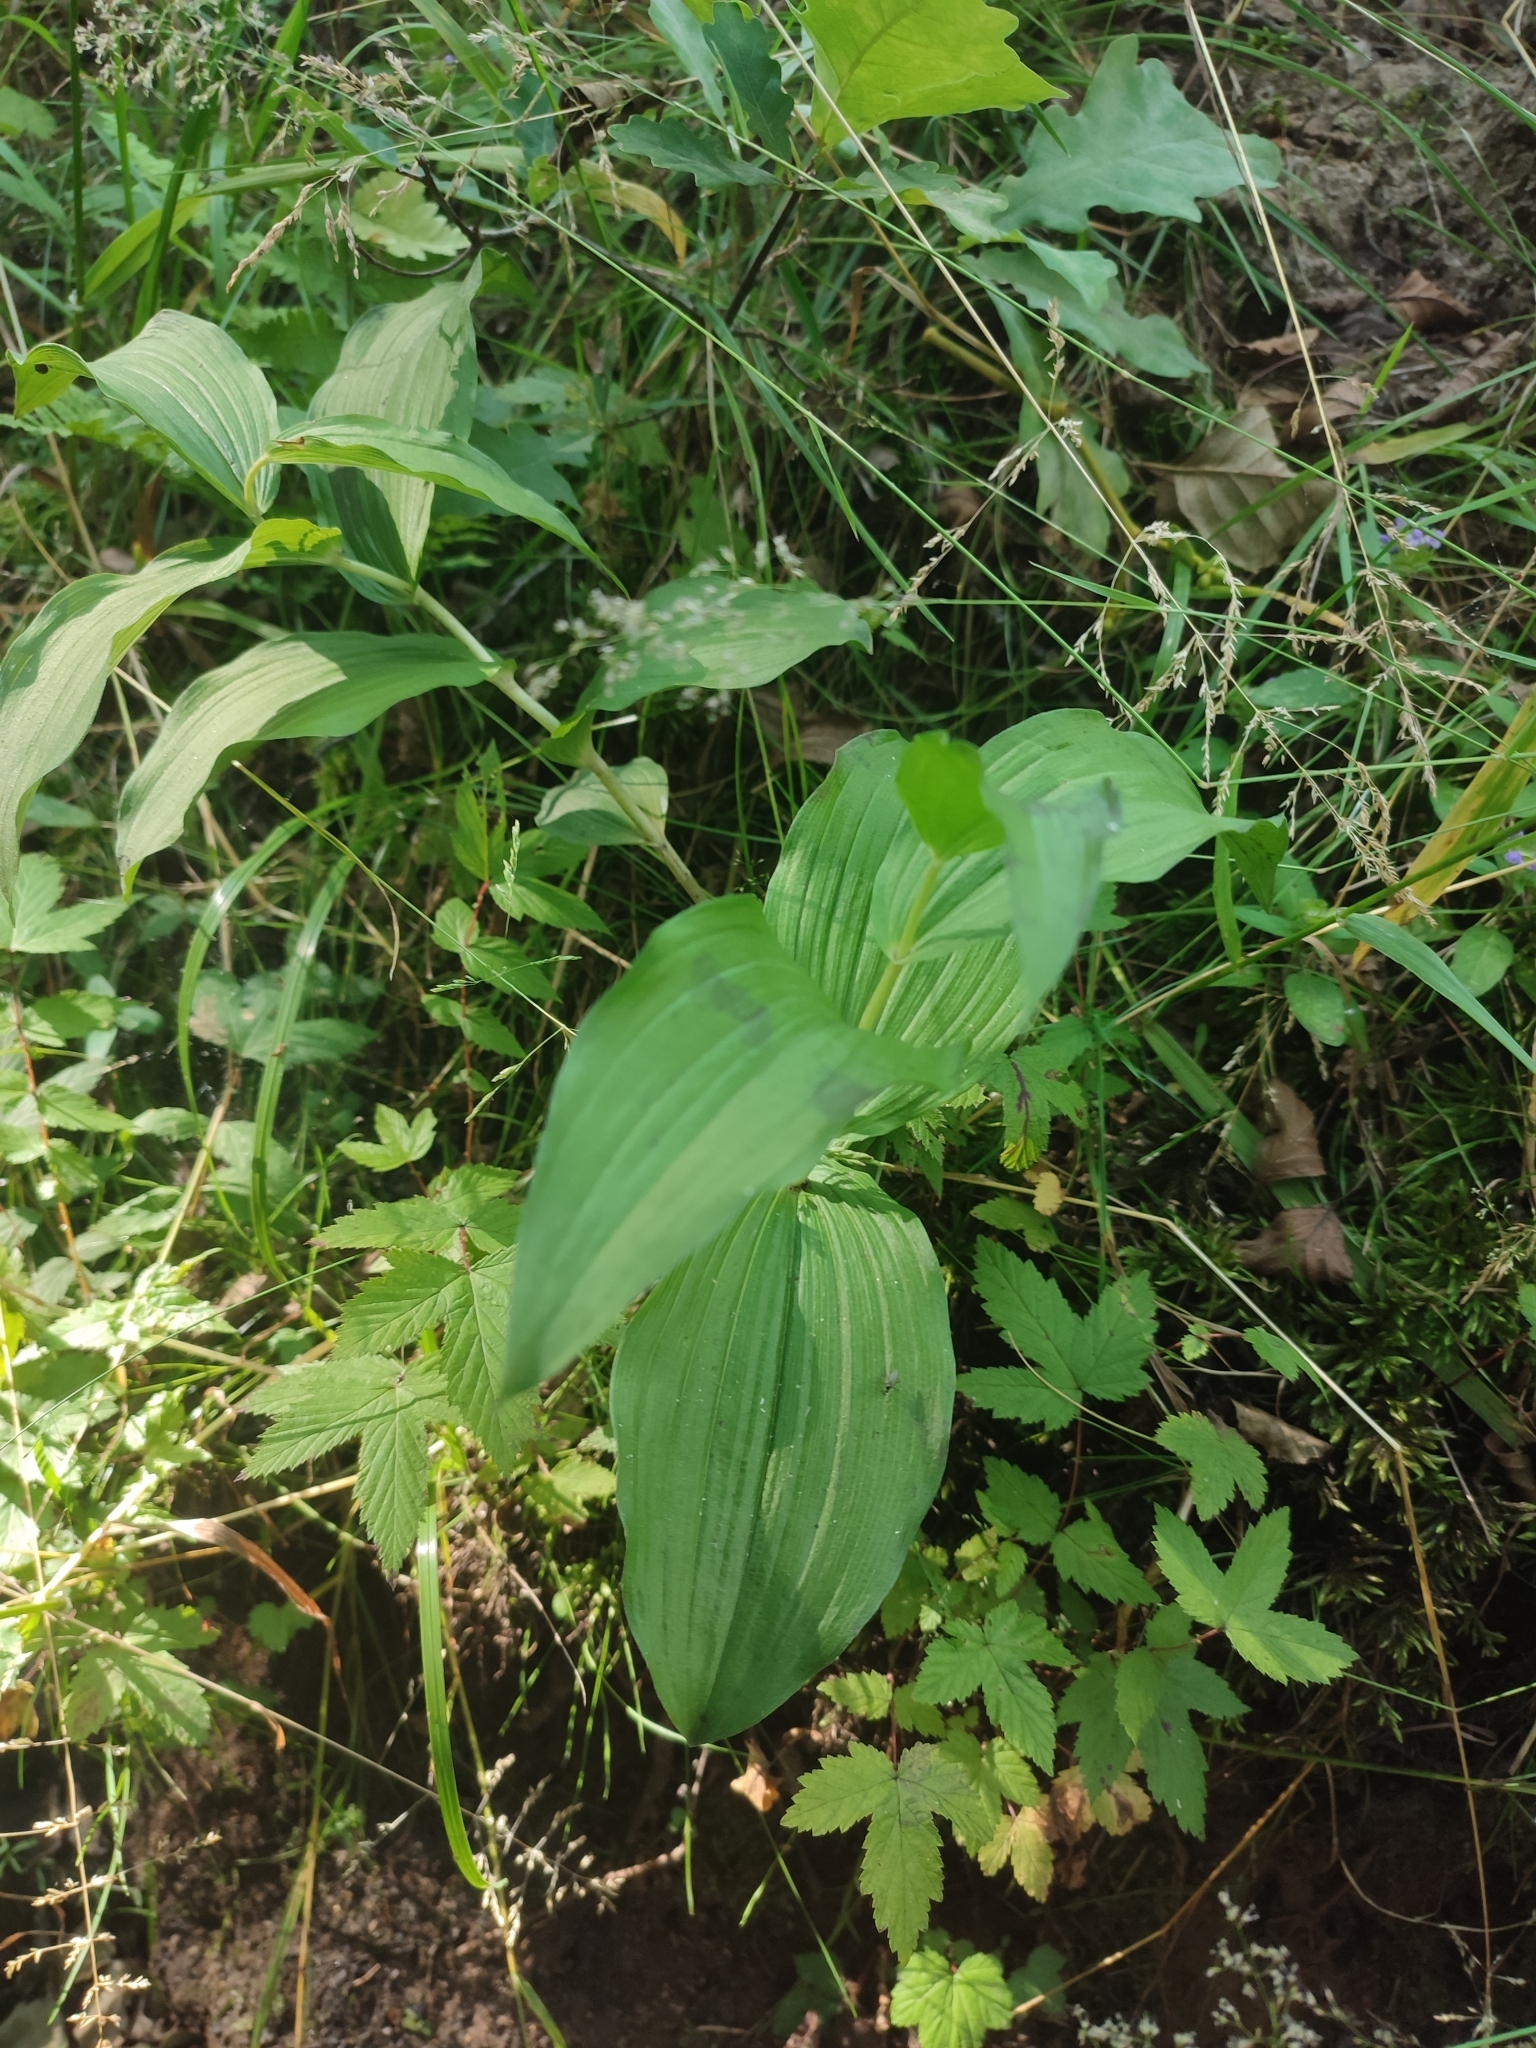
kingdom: Plantae
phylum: Tracheophyta
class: Liliopsida
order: Asparagales
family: Orchidaceae
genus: Epipactis
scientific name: Epipactis helleborine
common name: Broad-leaved helleborine
